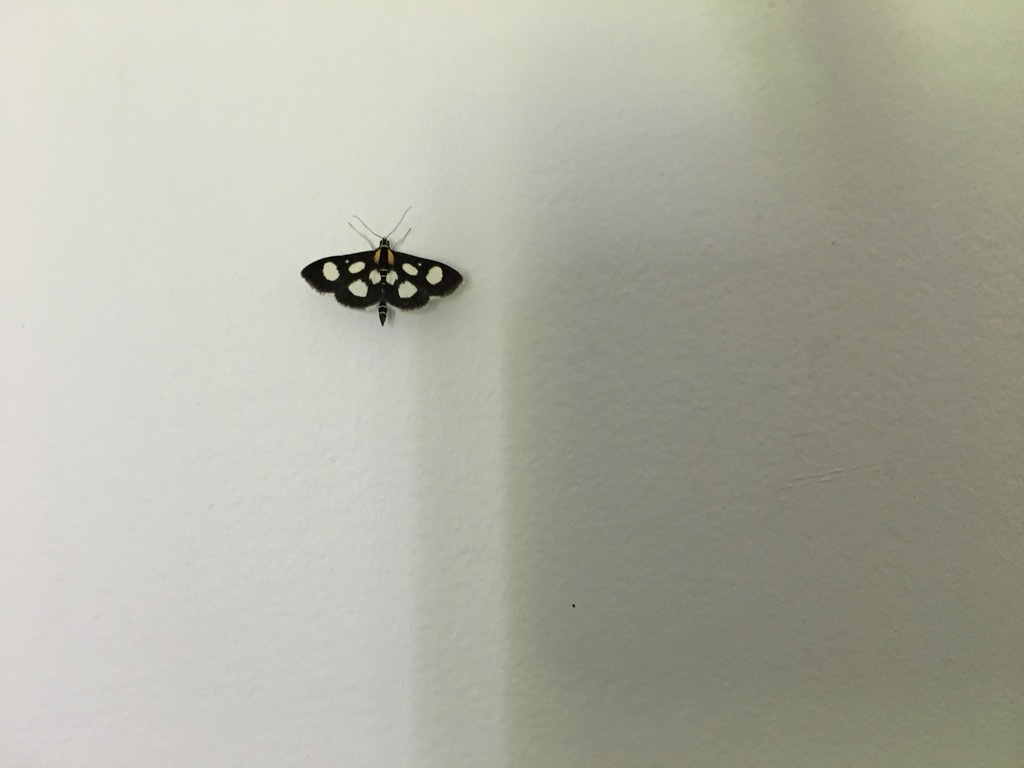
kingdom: Animalia
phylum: Arthropoda
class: Insecta
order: Lepidoptera
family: Crambidae
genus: Anania
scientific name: Anania funebris
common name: White-spotted sable moth
